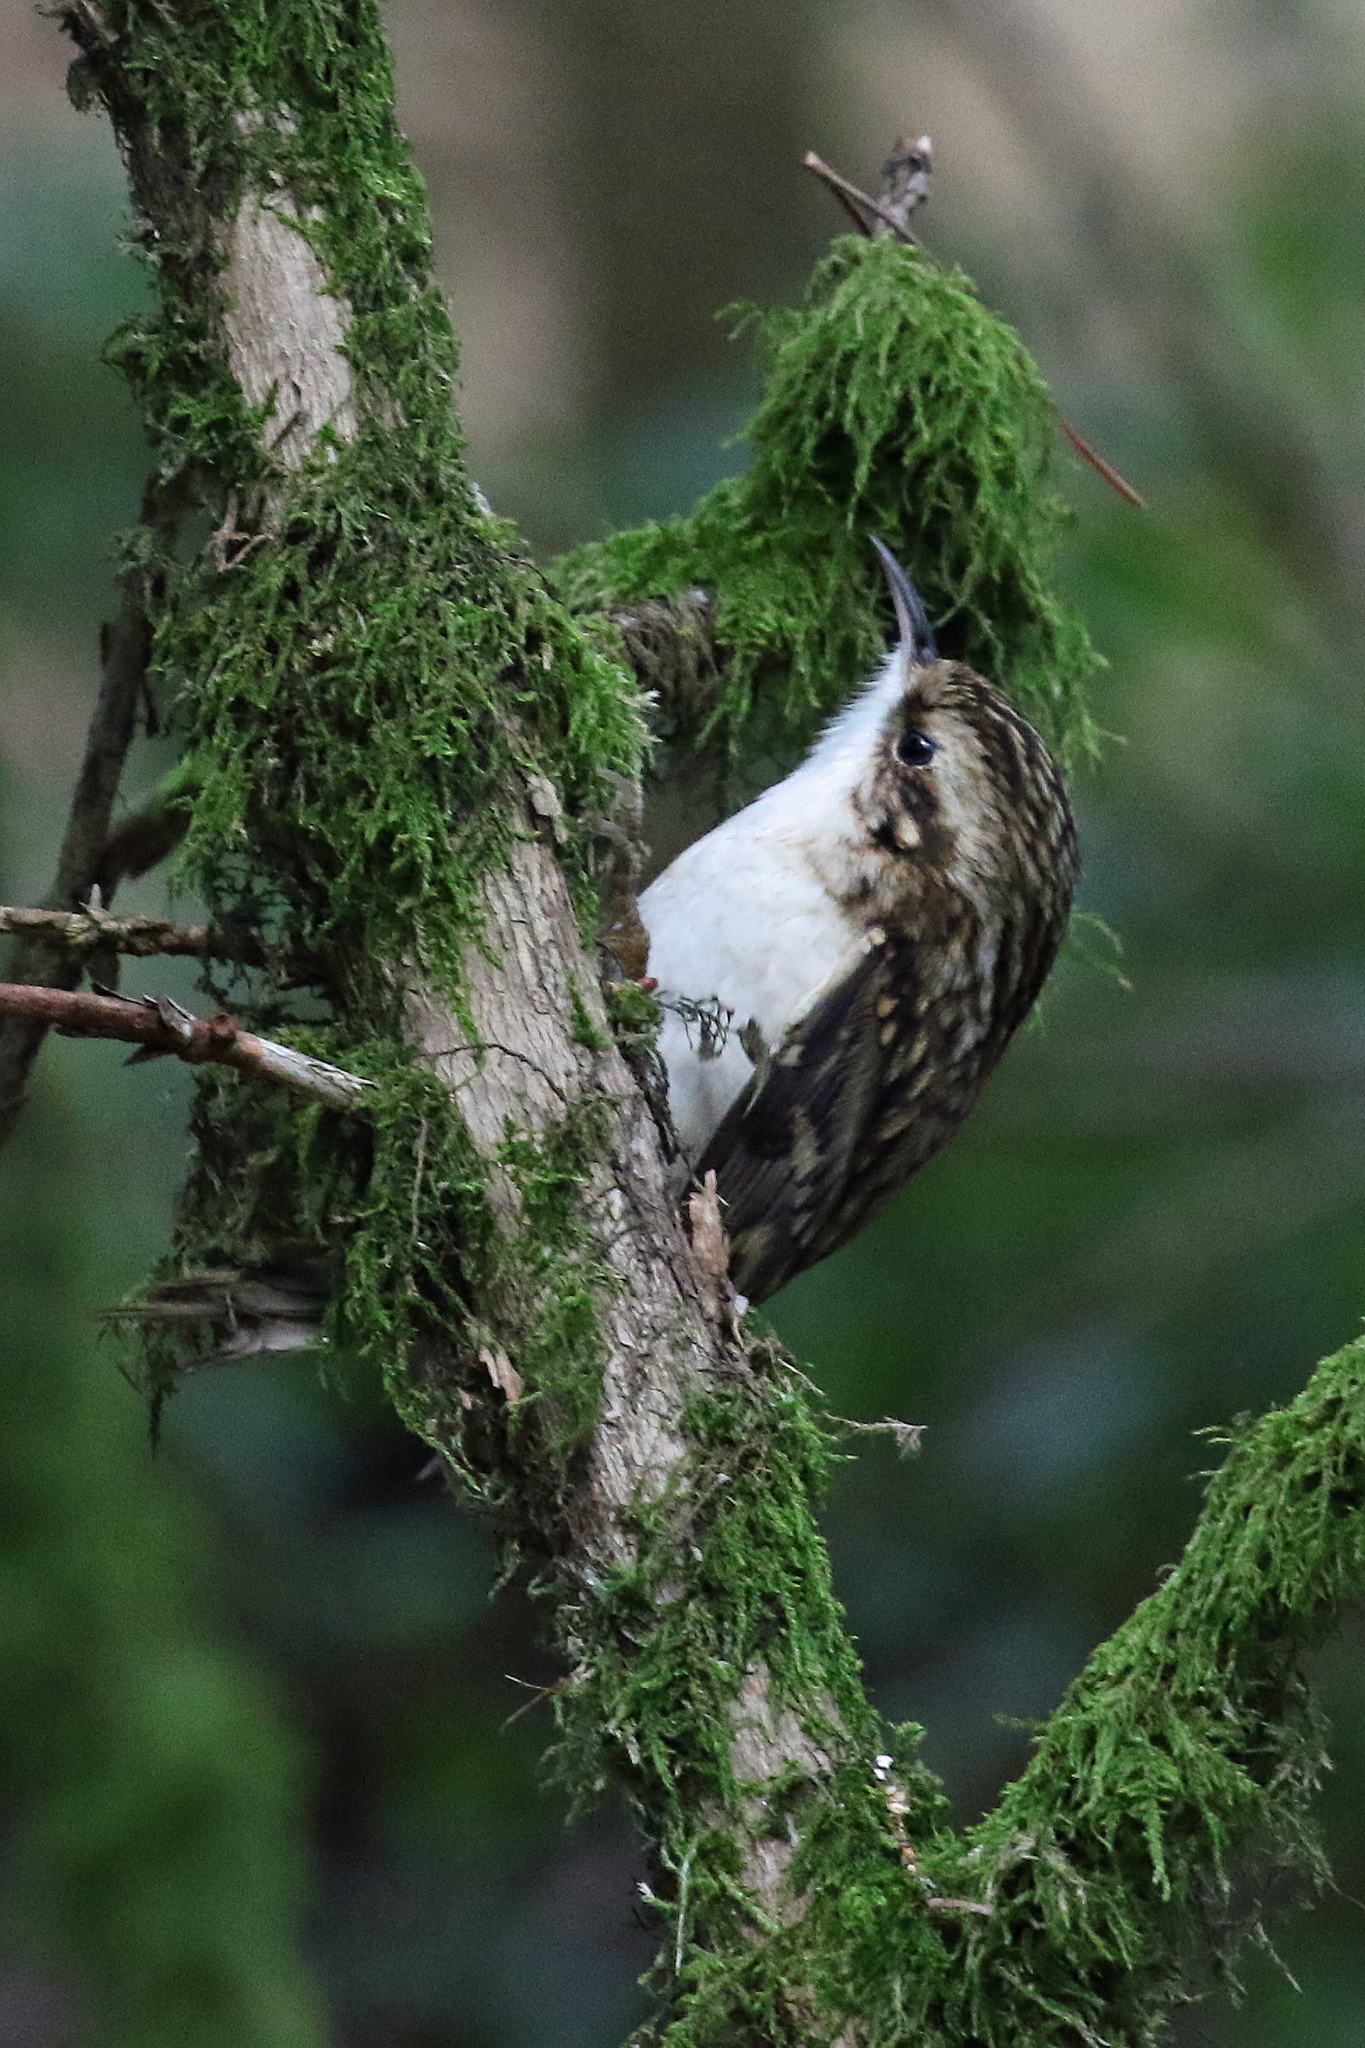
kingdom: Animalia
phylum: Chordata
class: Aves
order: Passeriformes
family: Certhiidae
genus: Certhia
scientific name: Certhia familiaris
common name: Eurasian treecreeper
